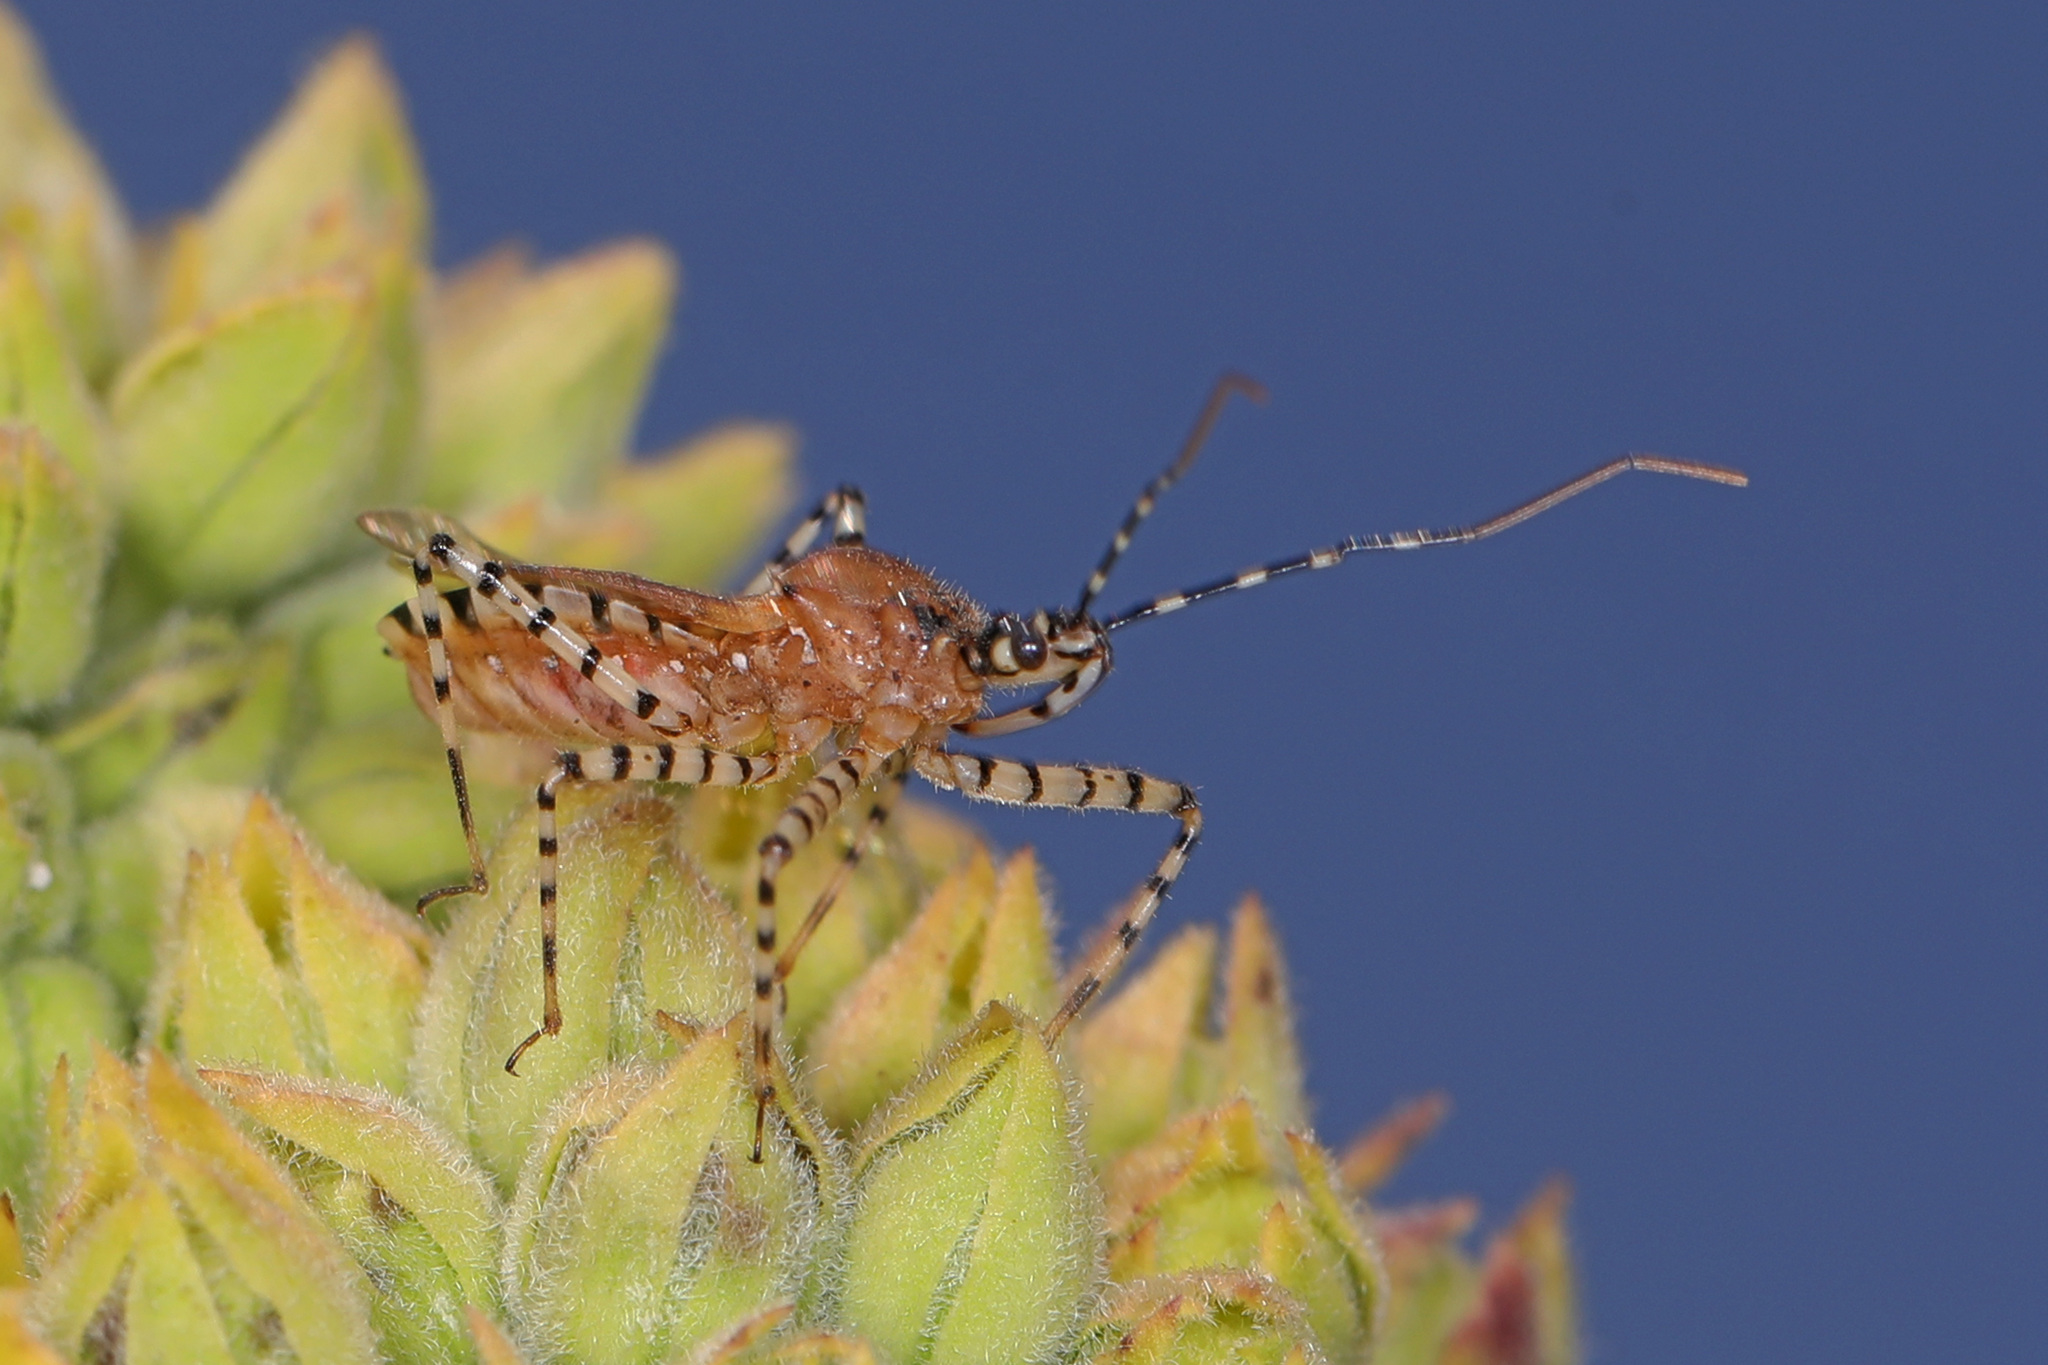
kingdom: Animalia
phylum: Arthropoda
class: Insecta
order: Hemiptera
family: Reduviidae
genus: Pselliopus
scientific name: Pselliopus cinctus
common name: Ringed assassin bug
